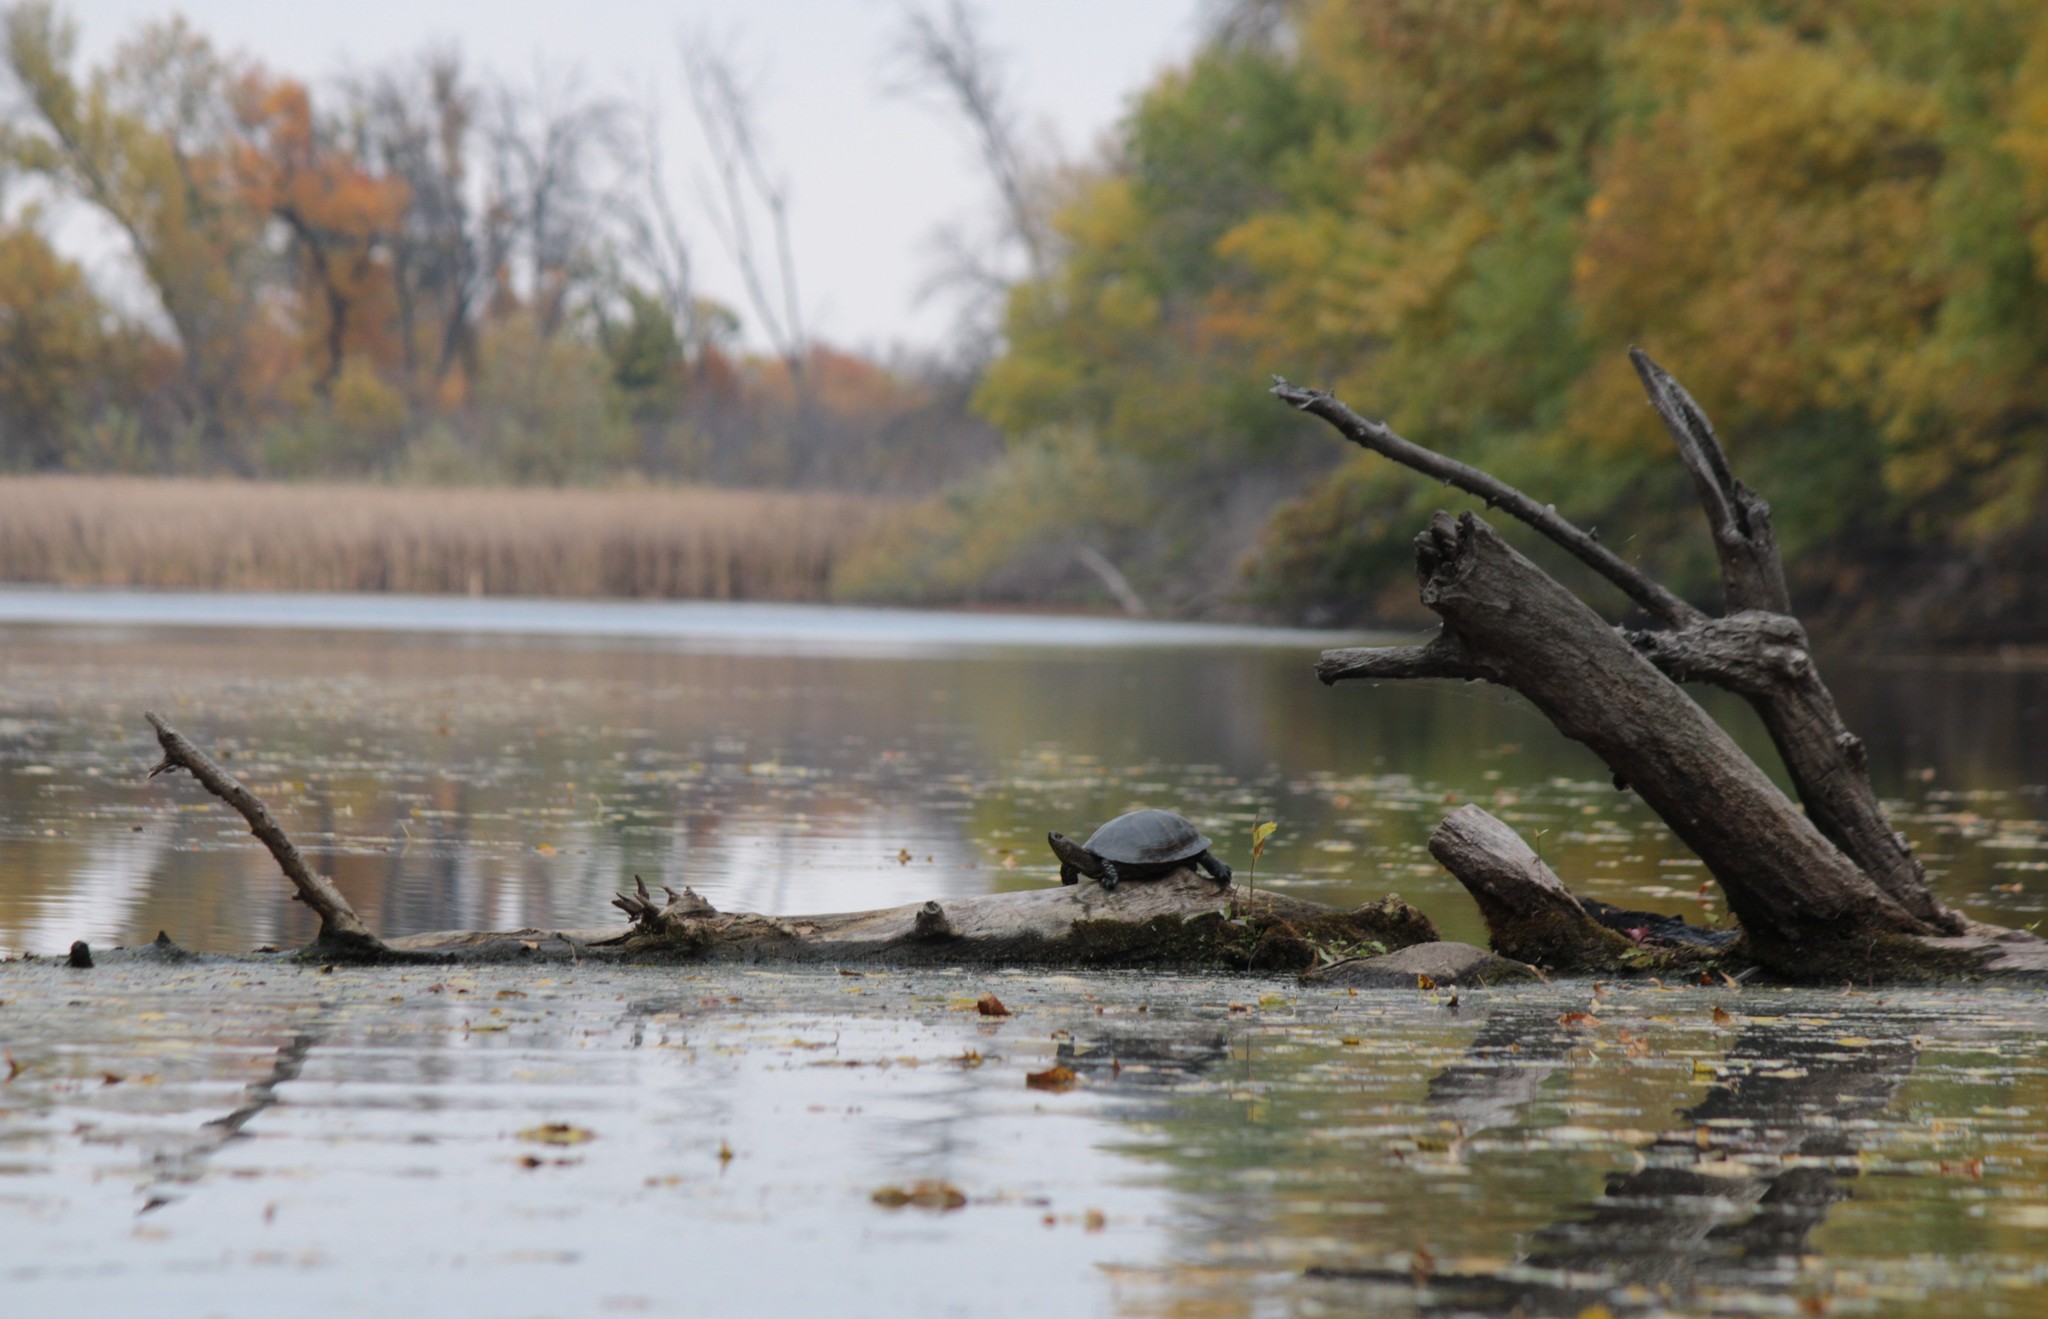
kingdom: Animalia
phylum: Chordata
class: Testudines
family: Emydidae
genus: Emys
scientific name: Emys orbicularis
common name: European pond turtle
